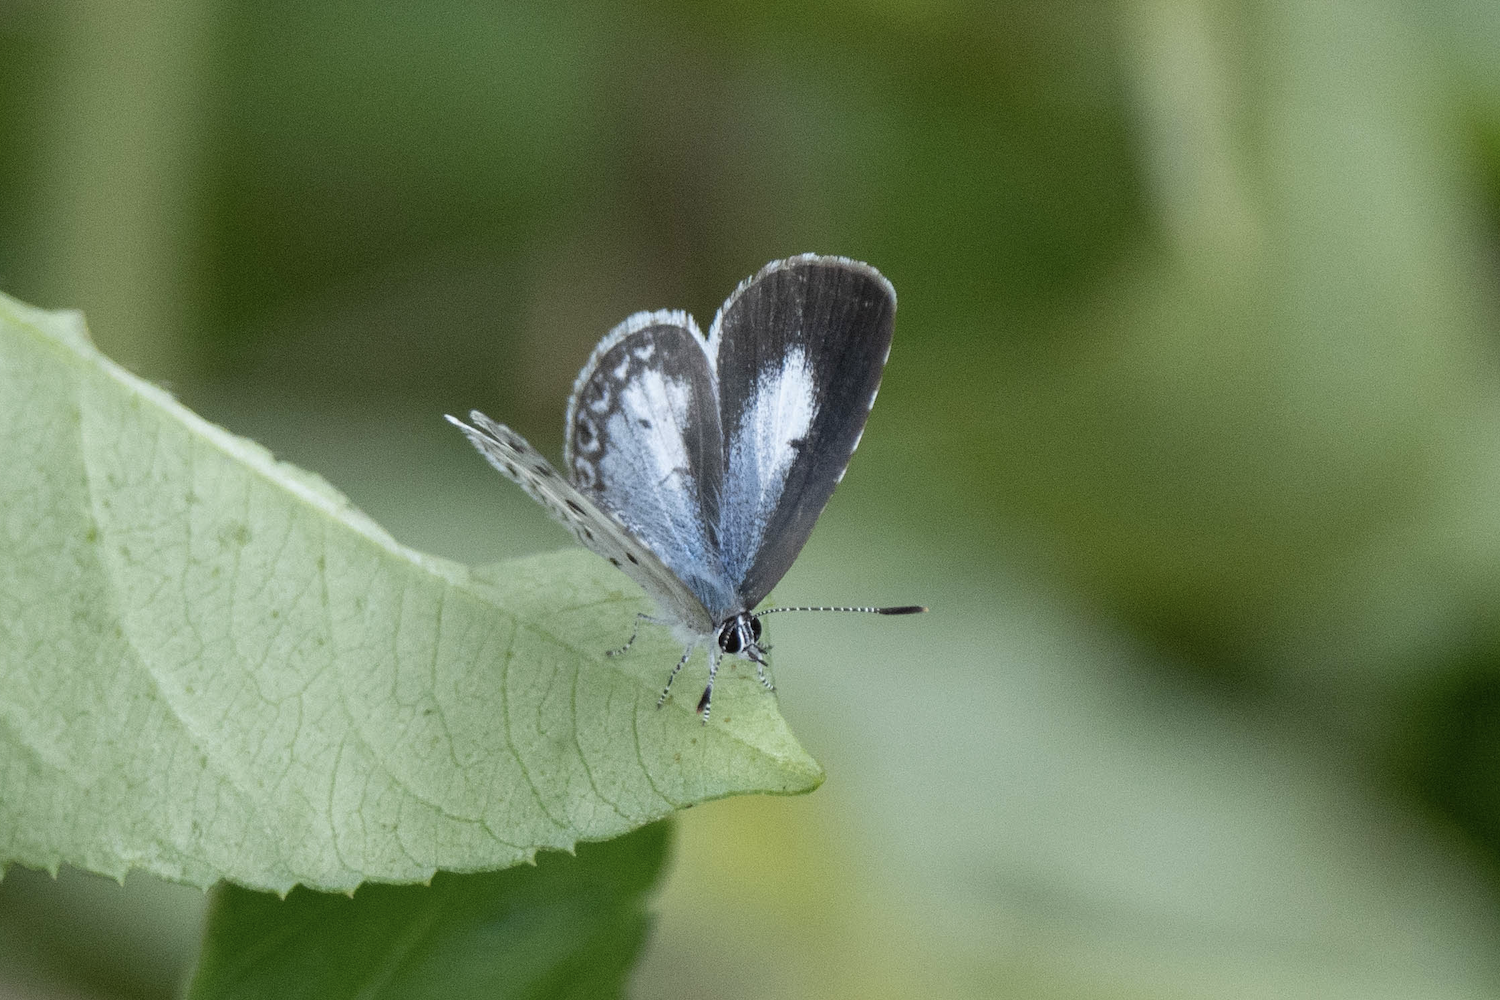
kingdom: Animalia
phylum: Arthropoda
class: Insecta
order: Lepidoptera
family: Lycaenidae
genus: Acytolepis
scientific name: Acytolepis puspa
